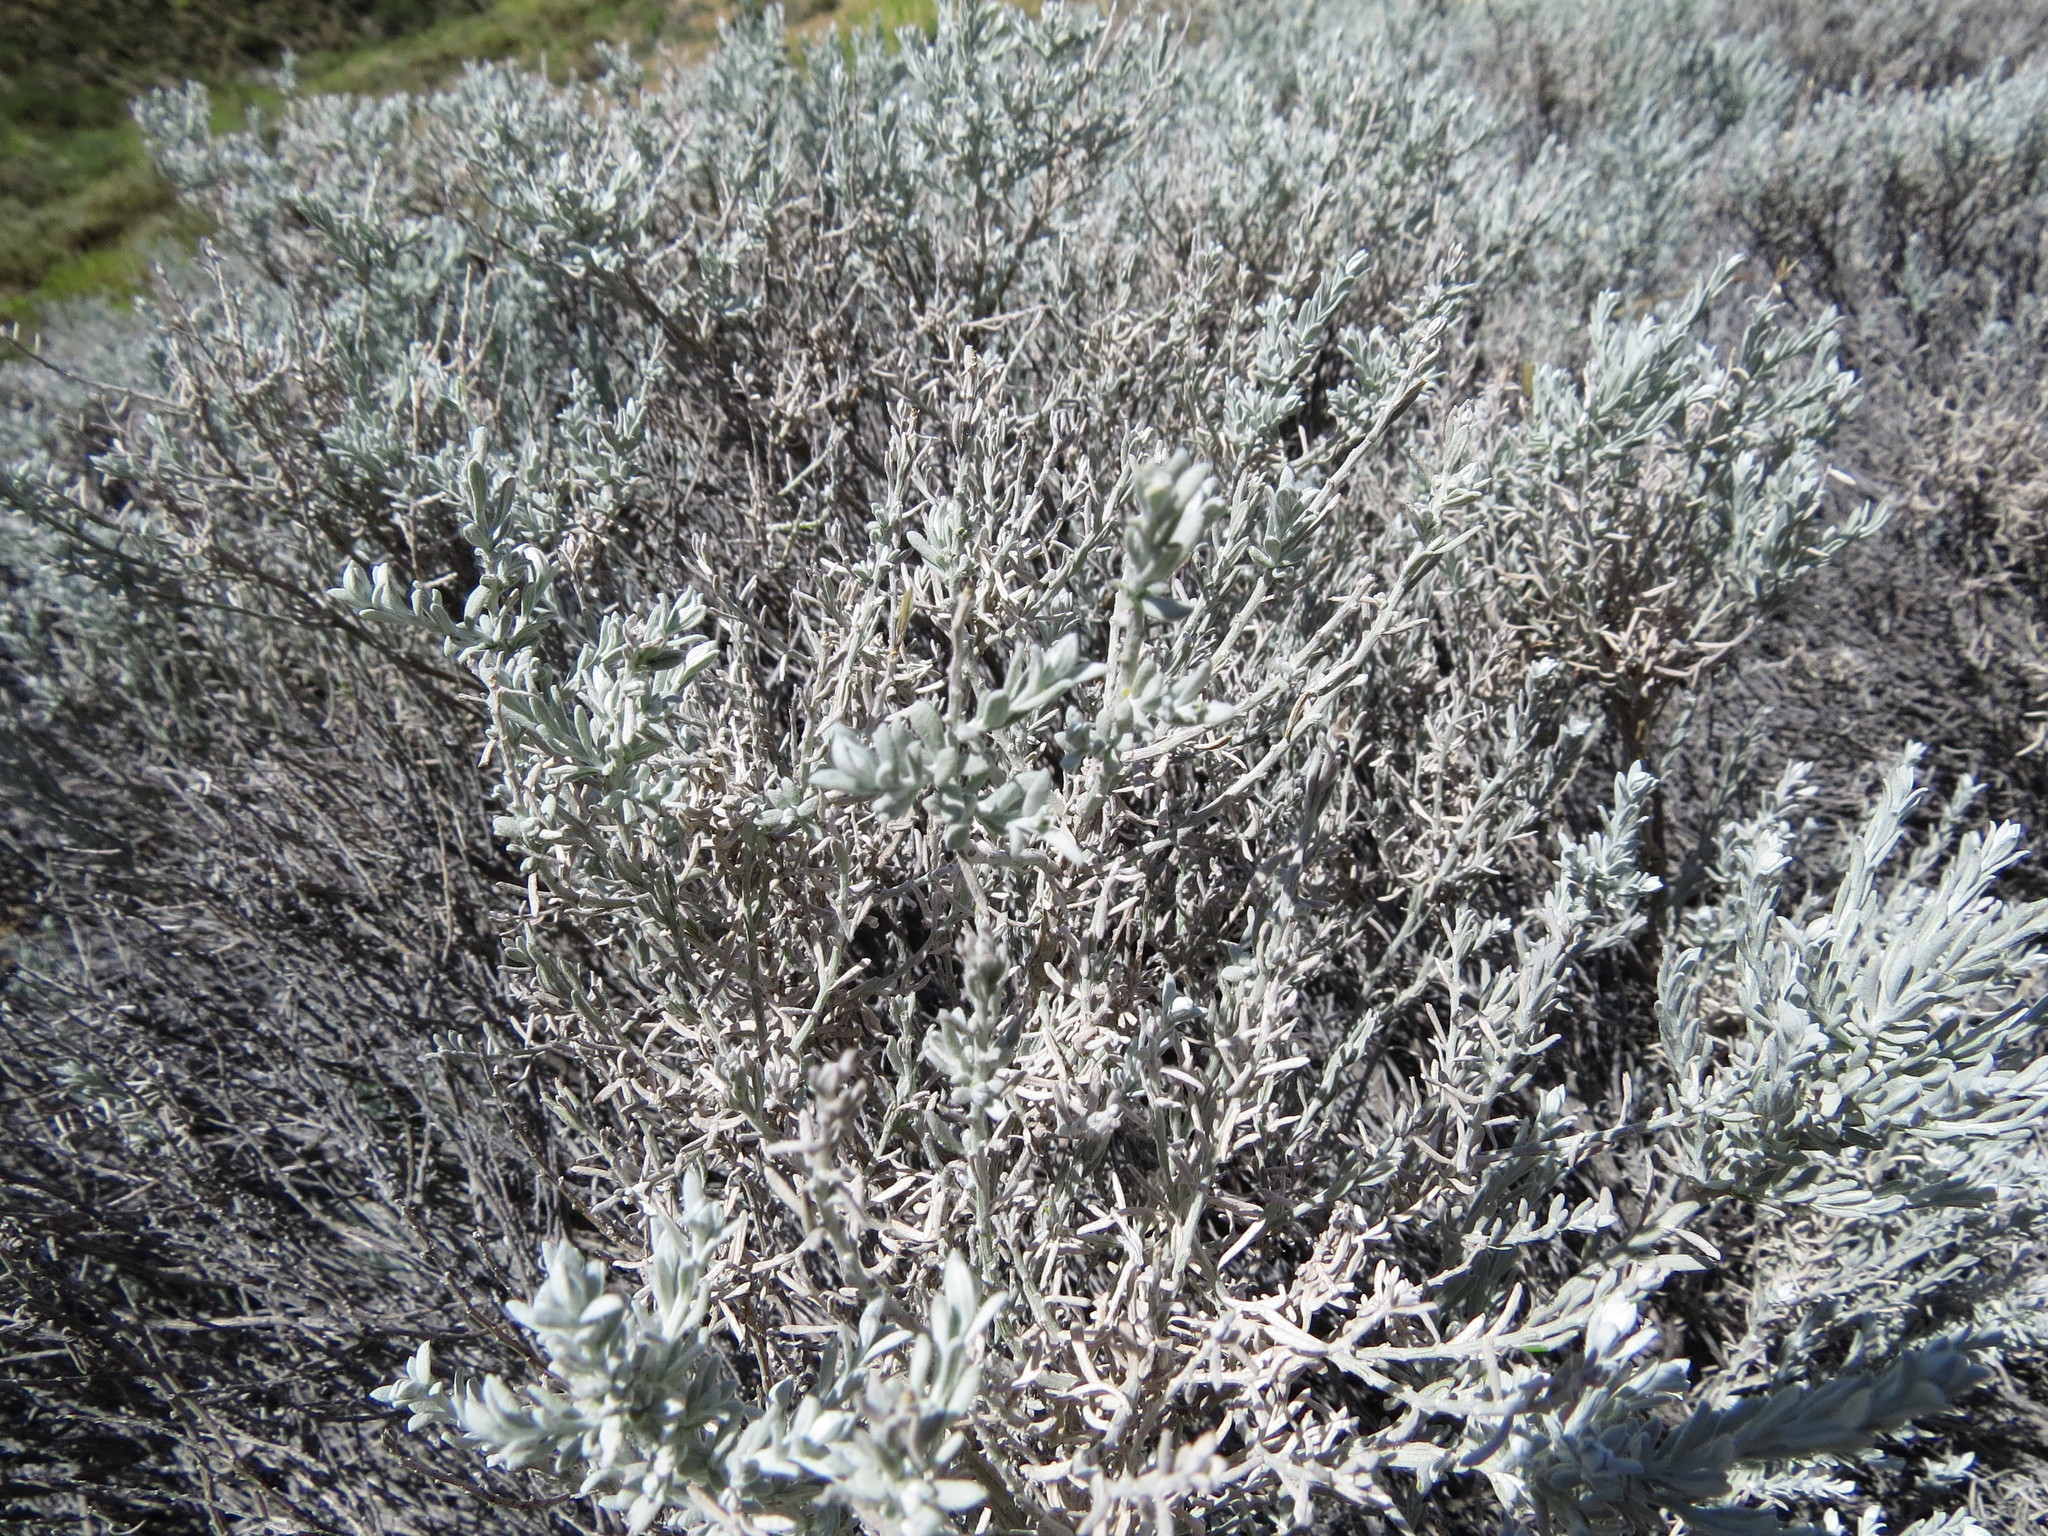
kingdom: Plantae
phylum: Tracheophyta
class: Magnoliopsida
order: Asterales
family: Asteraceae
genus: Nardophyllum
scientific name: Nardophyllum lanatum
